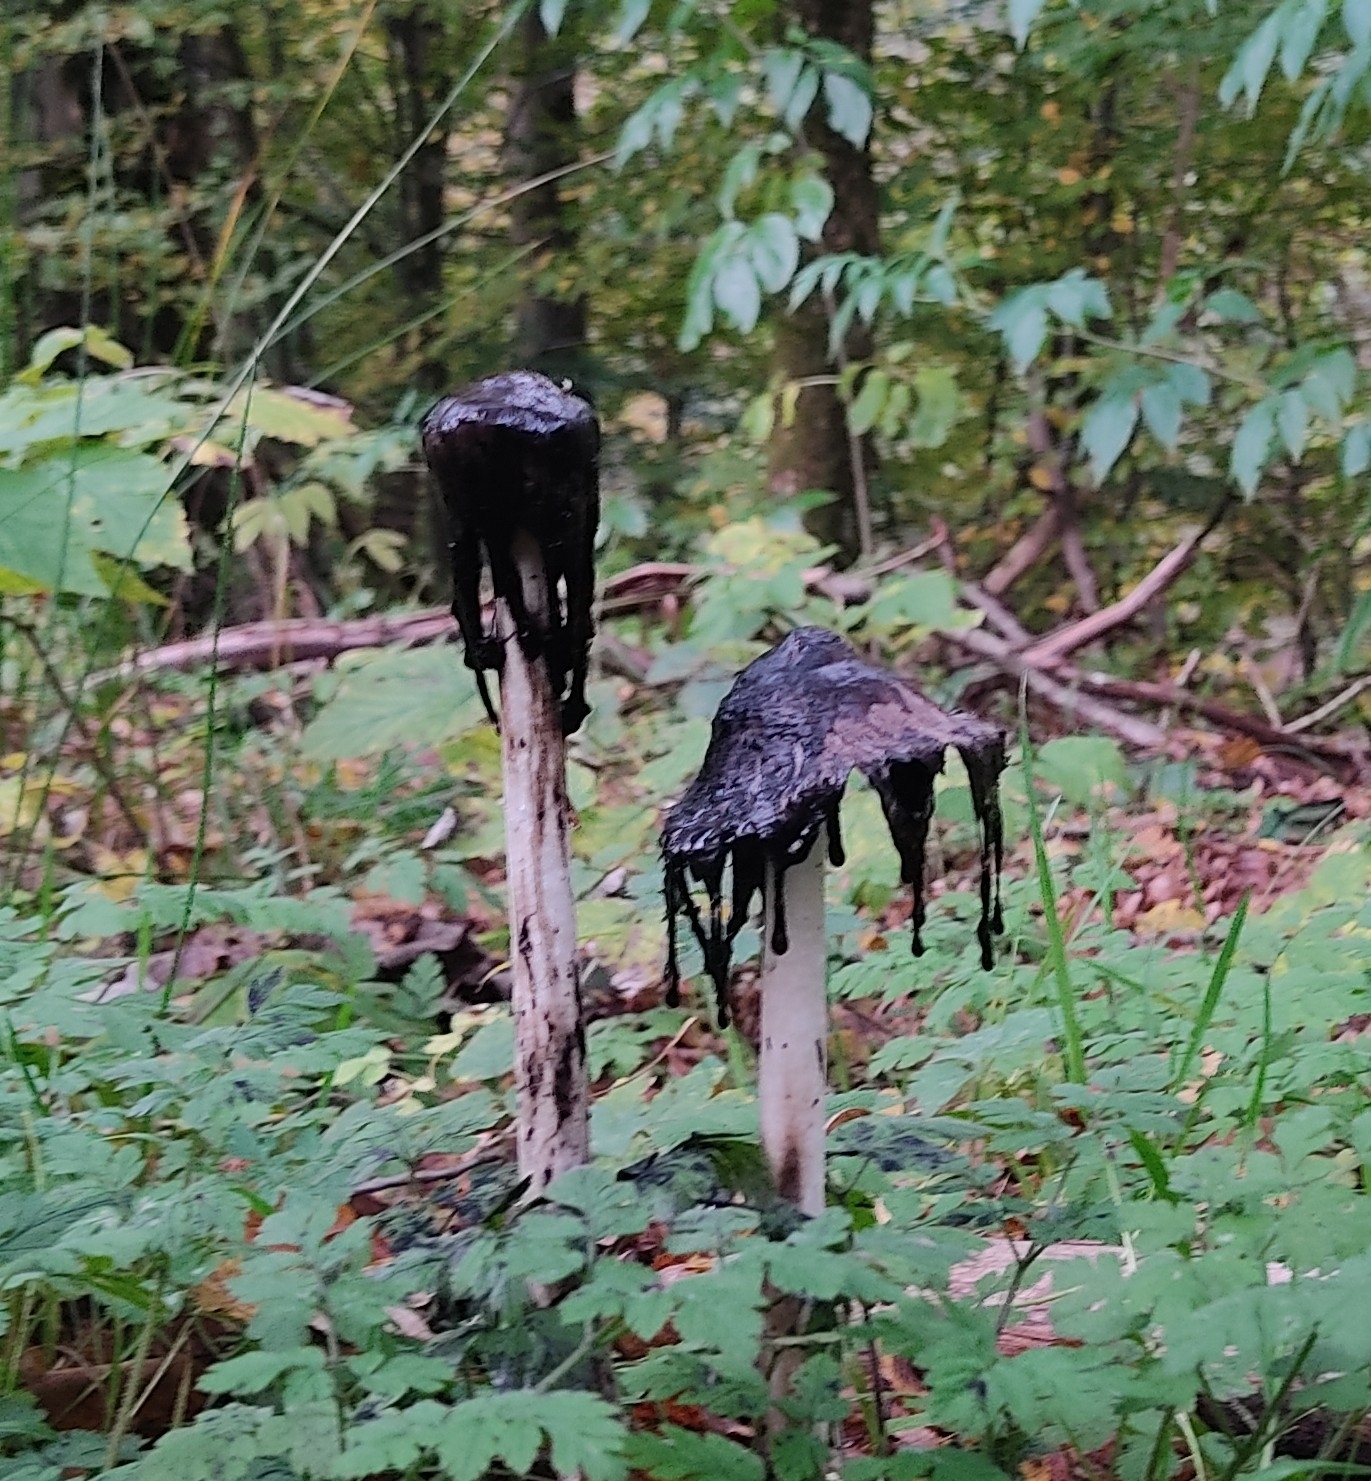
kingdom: Fungi
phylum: Basidiomycota
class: Agaricomycetes
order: Agaricales
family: Agaricaceae
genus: Coprinus
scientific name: Coprinus comatus
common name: Lawyer's wig
